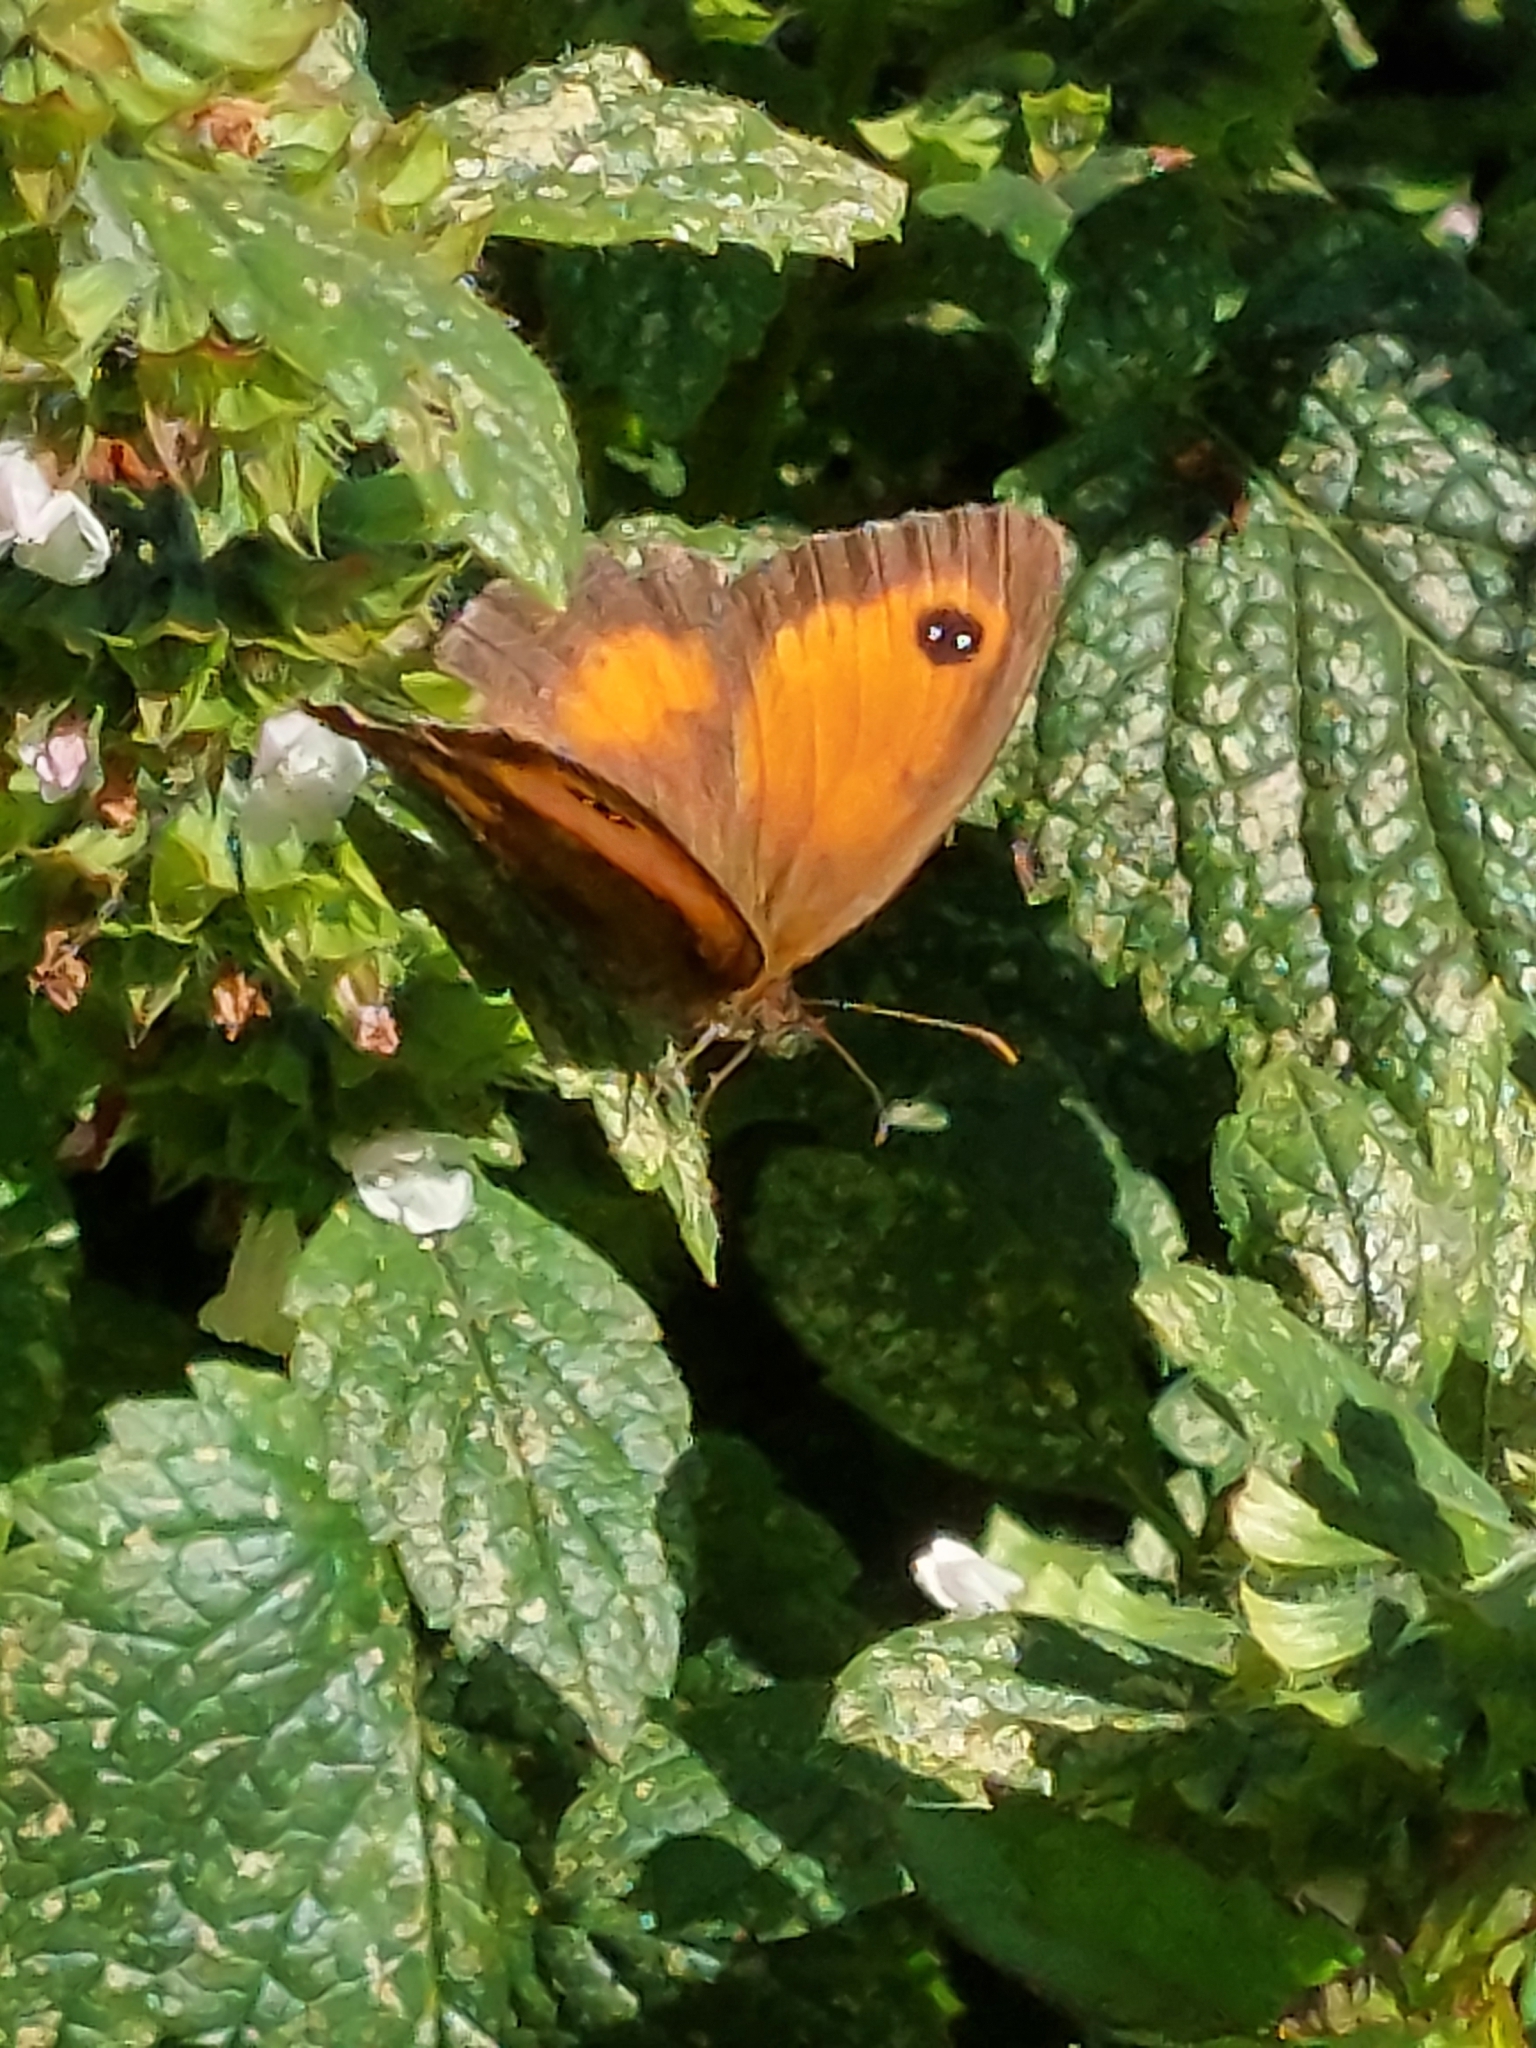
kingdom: Animalia
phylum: Arthropoda
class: Insecta
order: Lepidoptera
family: Nymphalidae
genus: Pyronia
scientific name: Pyronia tithonus
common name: Gatekeeper
